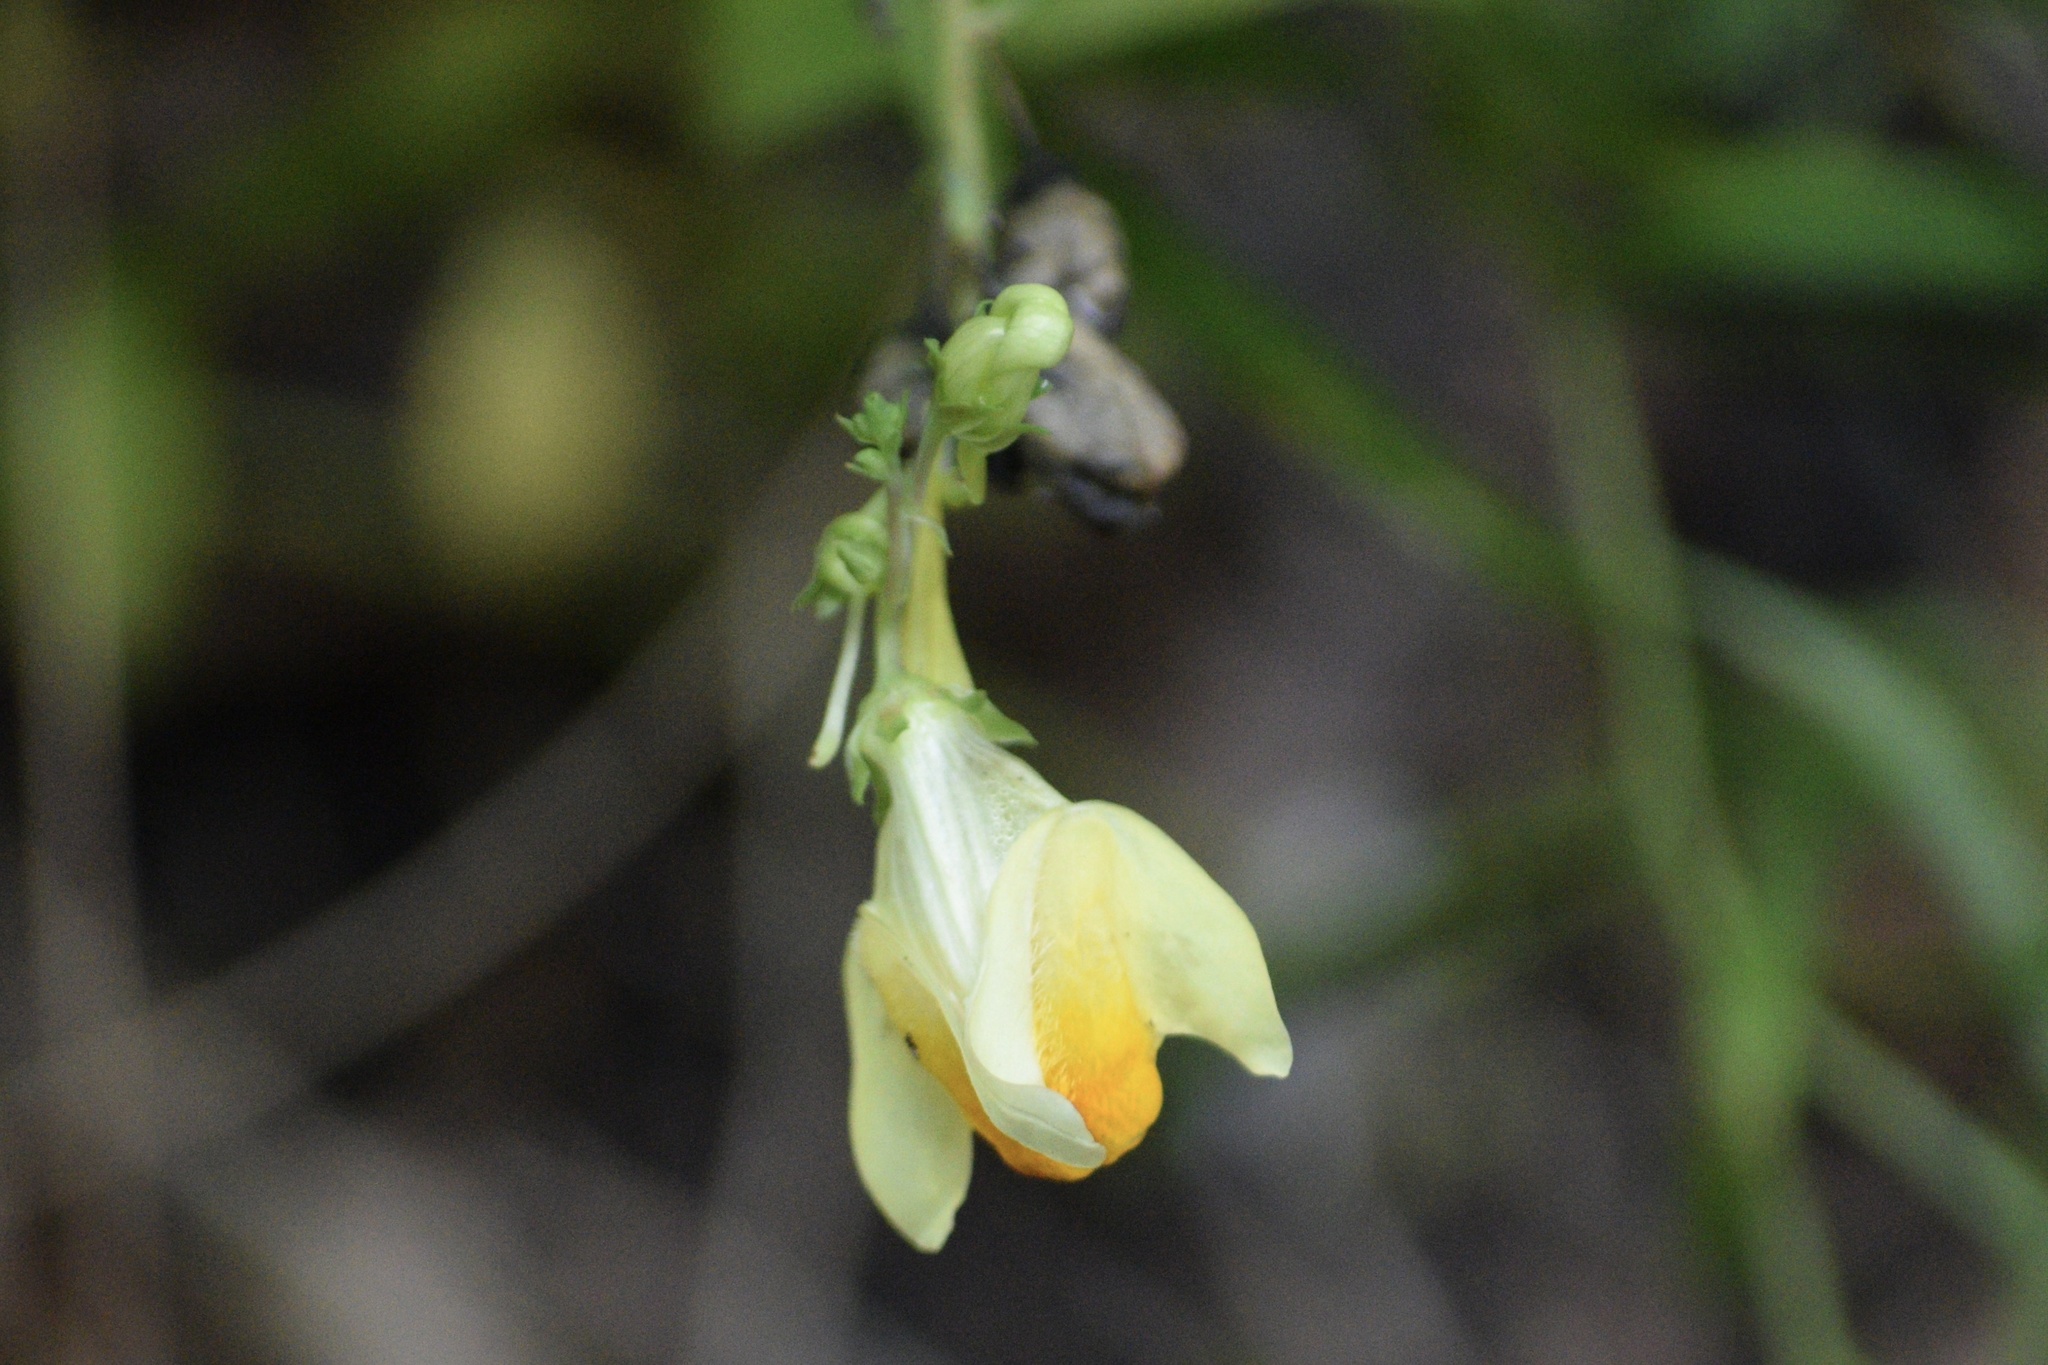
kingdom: Plantae
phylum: Tracheophyta
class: Magnoliopsida
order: Lamiales
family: Plantaginaceae
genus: Linaria
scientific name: Linaria vulgaris
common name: Butter and eggs
